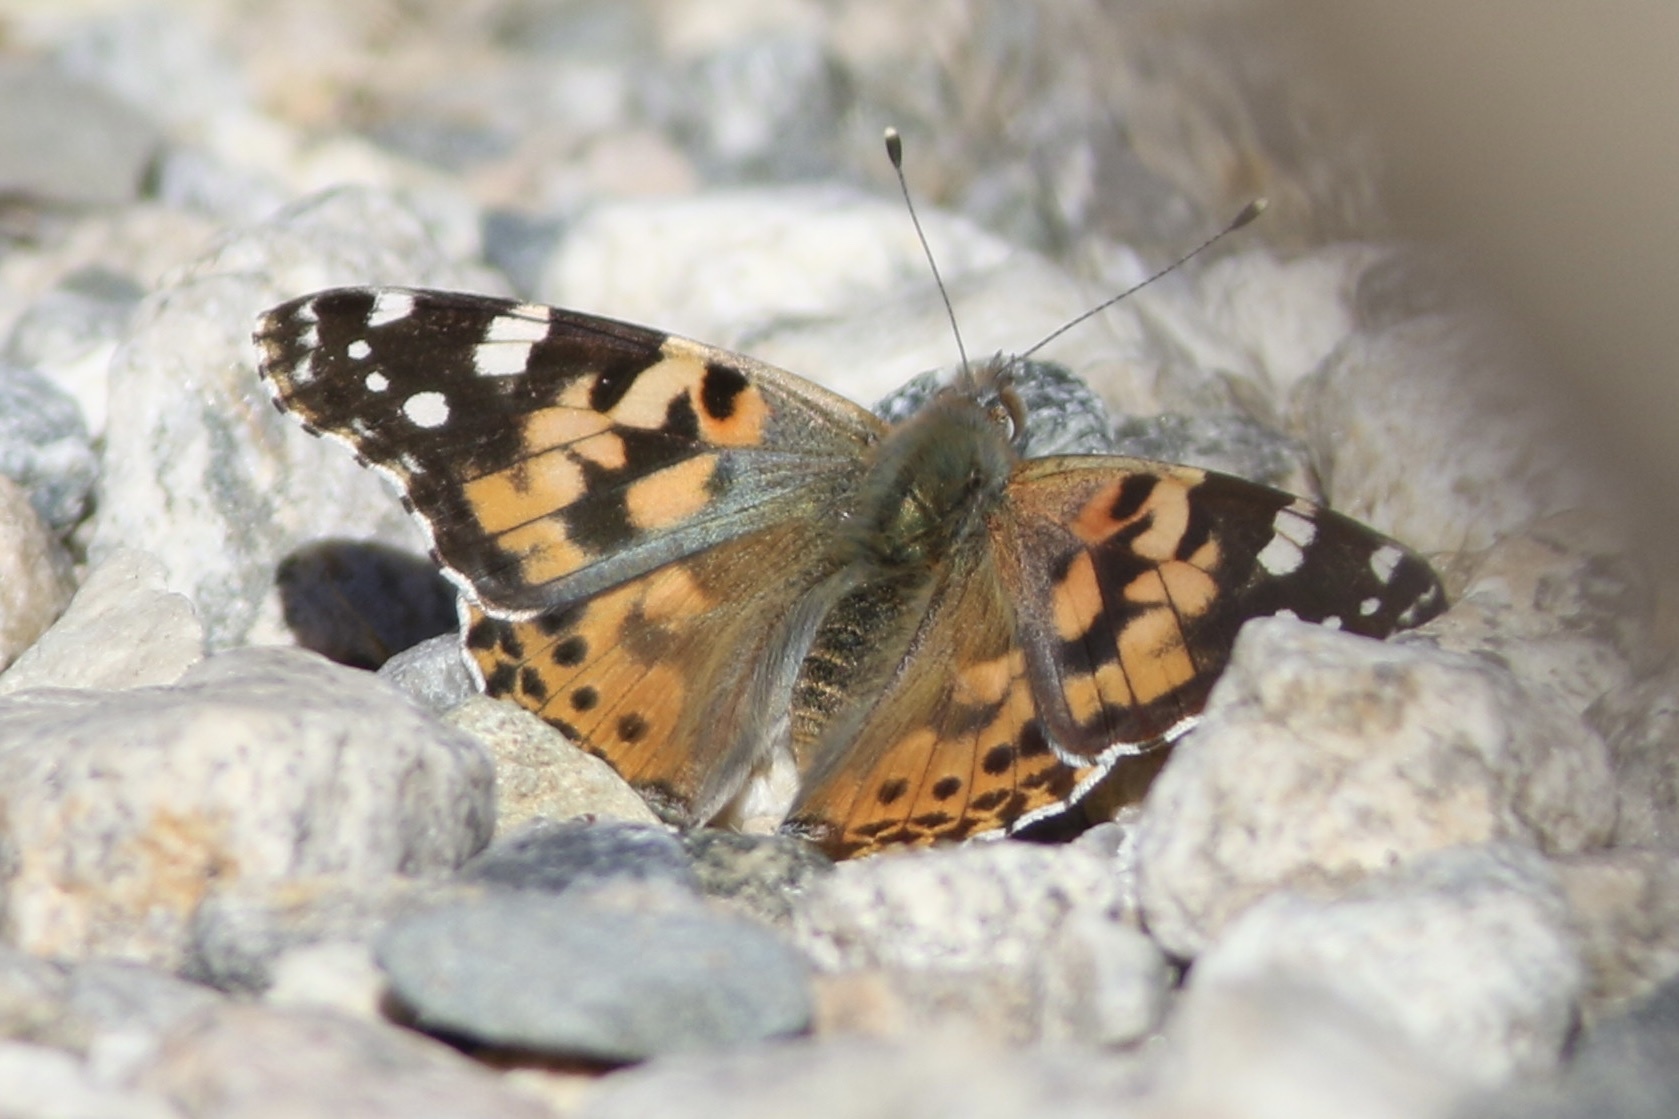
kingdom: Animalia
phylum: Arthropoda
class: Insecta
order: Lepidoptera
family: Nymphalidae
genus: Vanessa
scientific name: Vanessa cardui
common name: Painted lady
